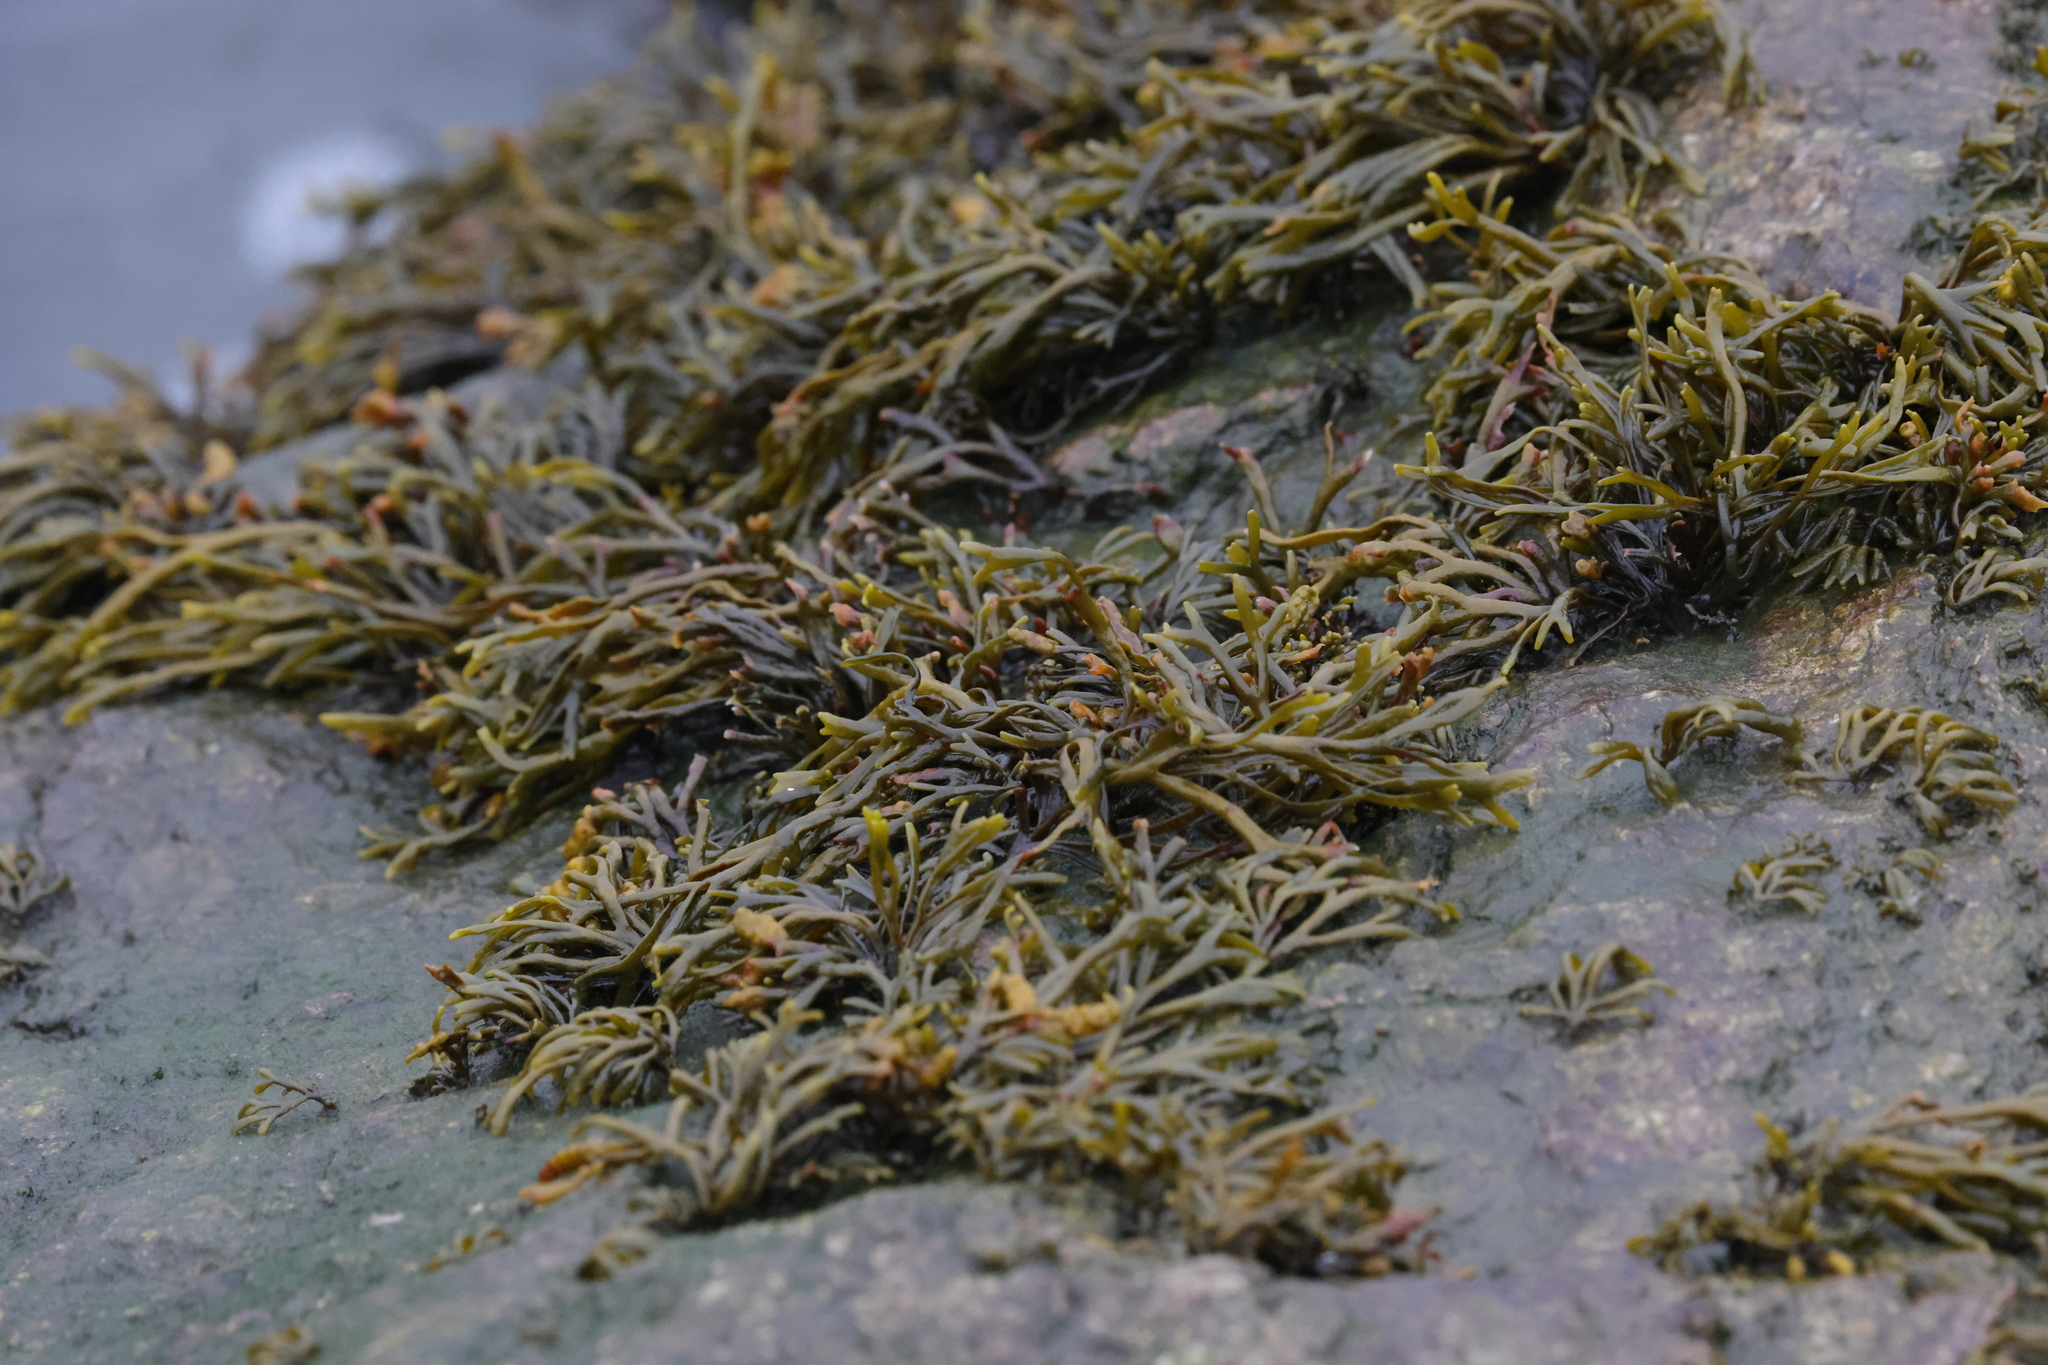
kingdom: Chromista
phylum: Ochrophyta
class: Phaeophyceae
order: Fucales
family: Fucaceae
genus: Pelvetia
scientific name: Pelvetia canaliculata
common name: Channelled wrack
